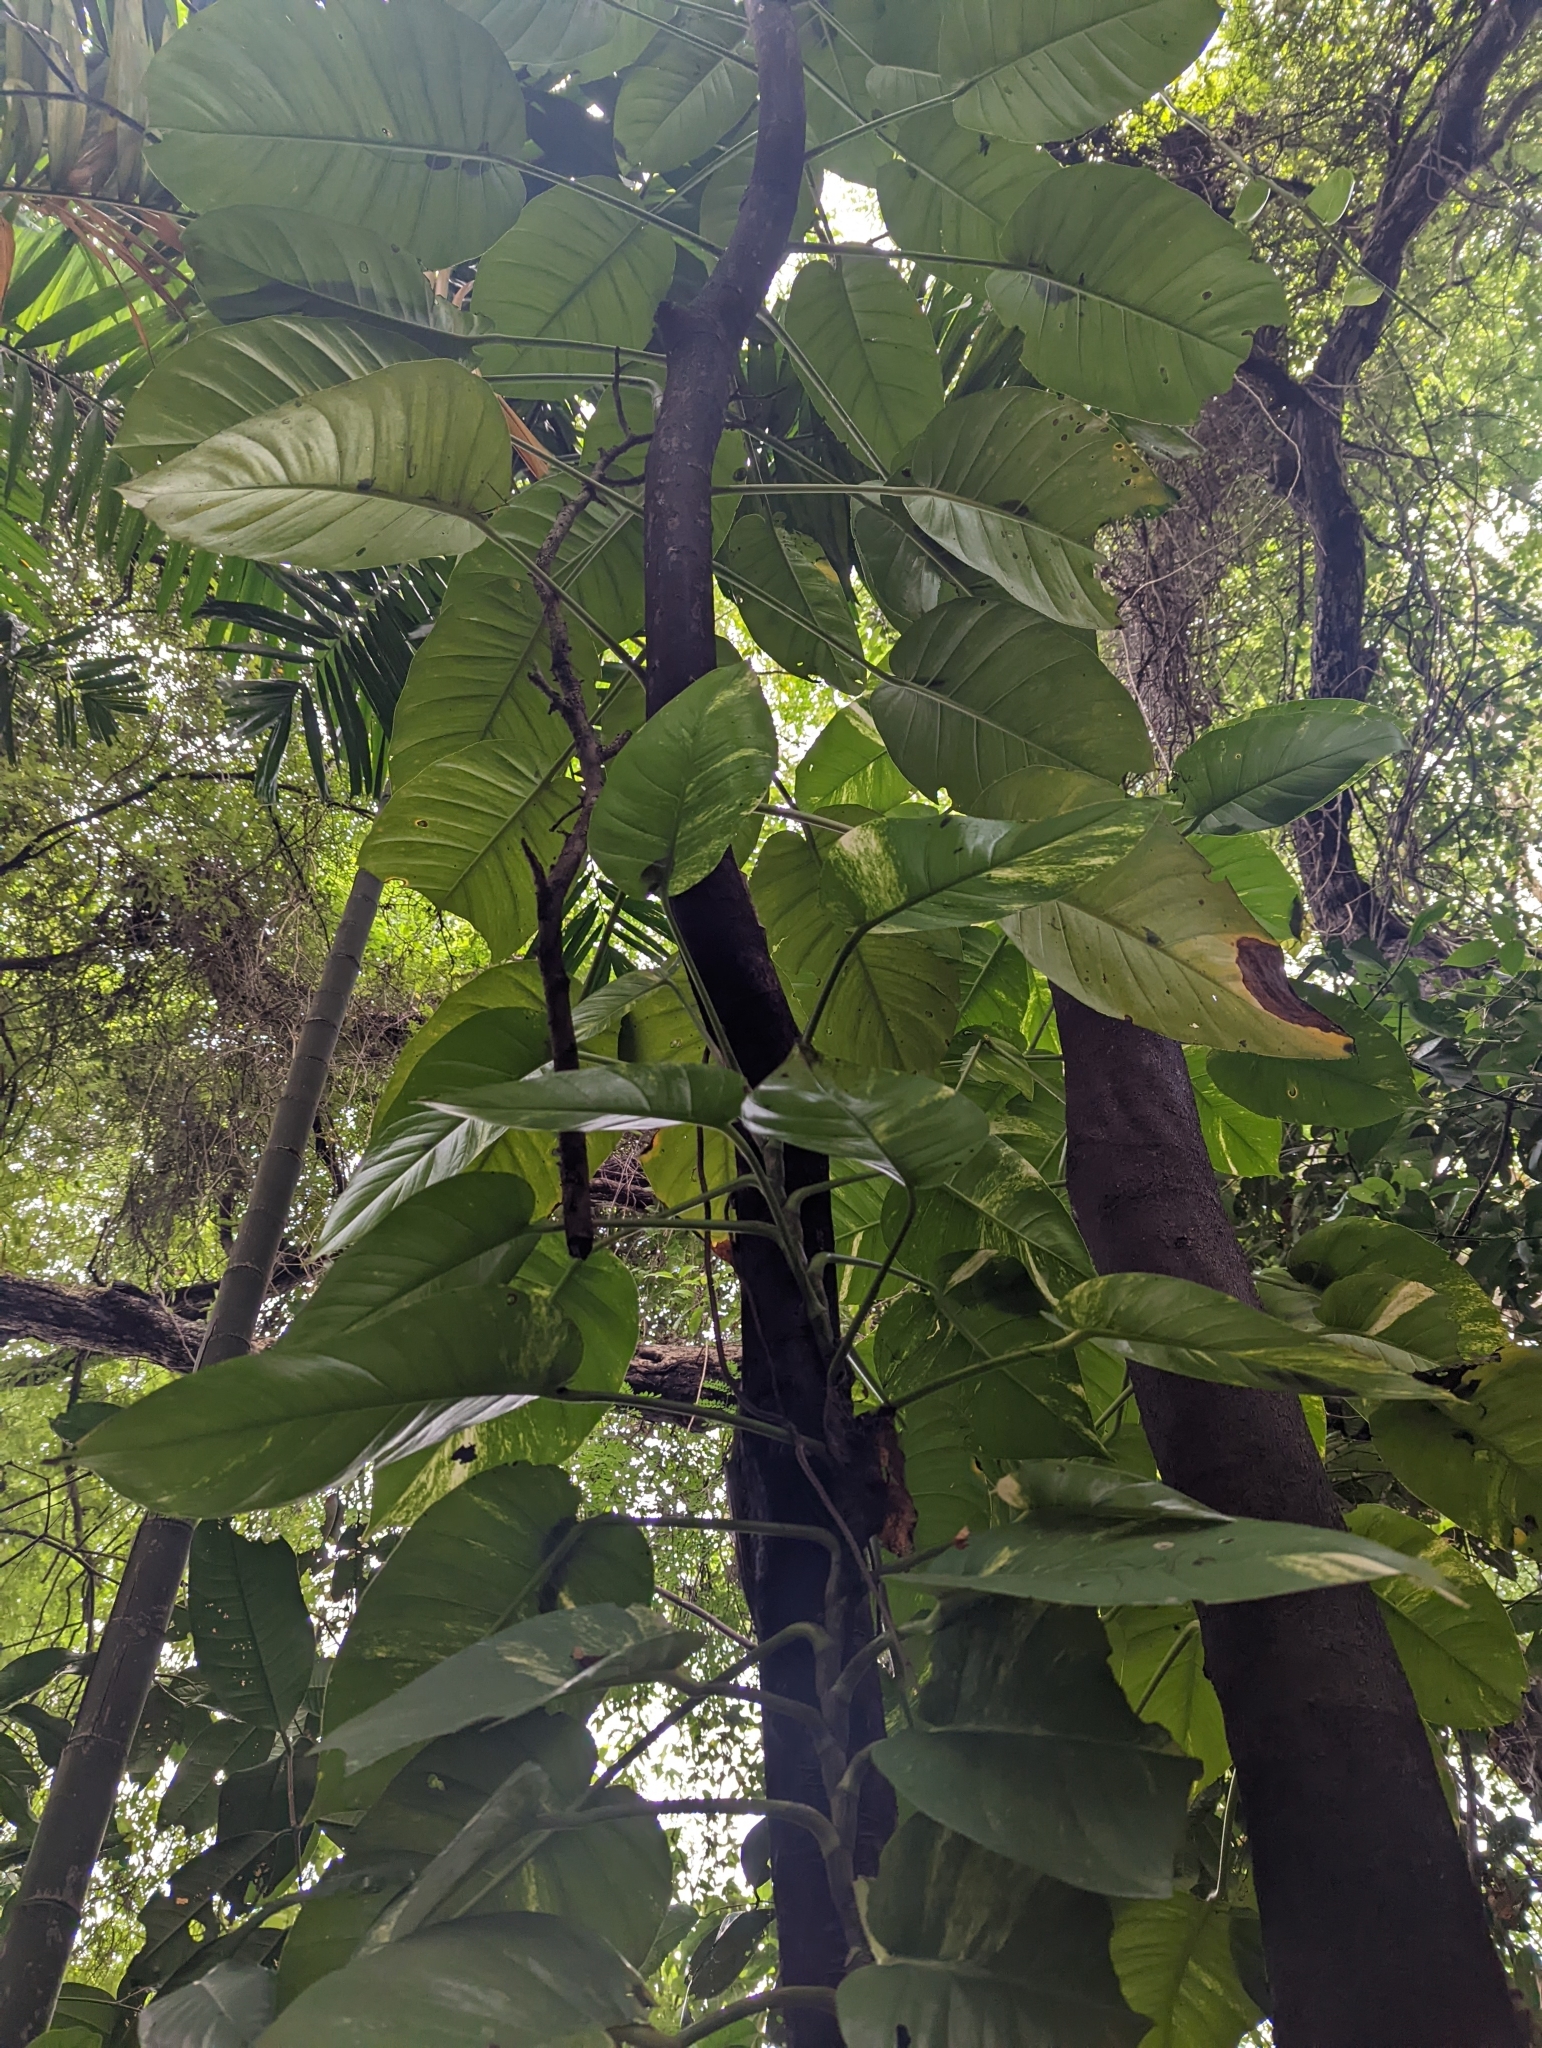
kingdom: Plantae
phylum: Tracheophyta
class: Liliopsida
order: Alismatales
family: Araceae
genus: Epipremnum
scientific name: Epipremnum aureum
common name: Golden hunter's-robe
